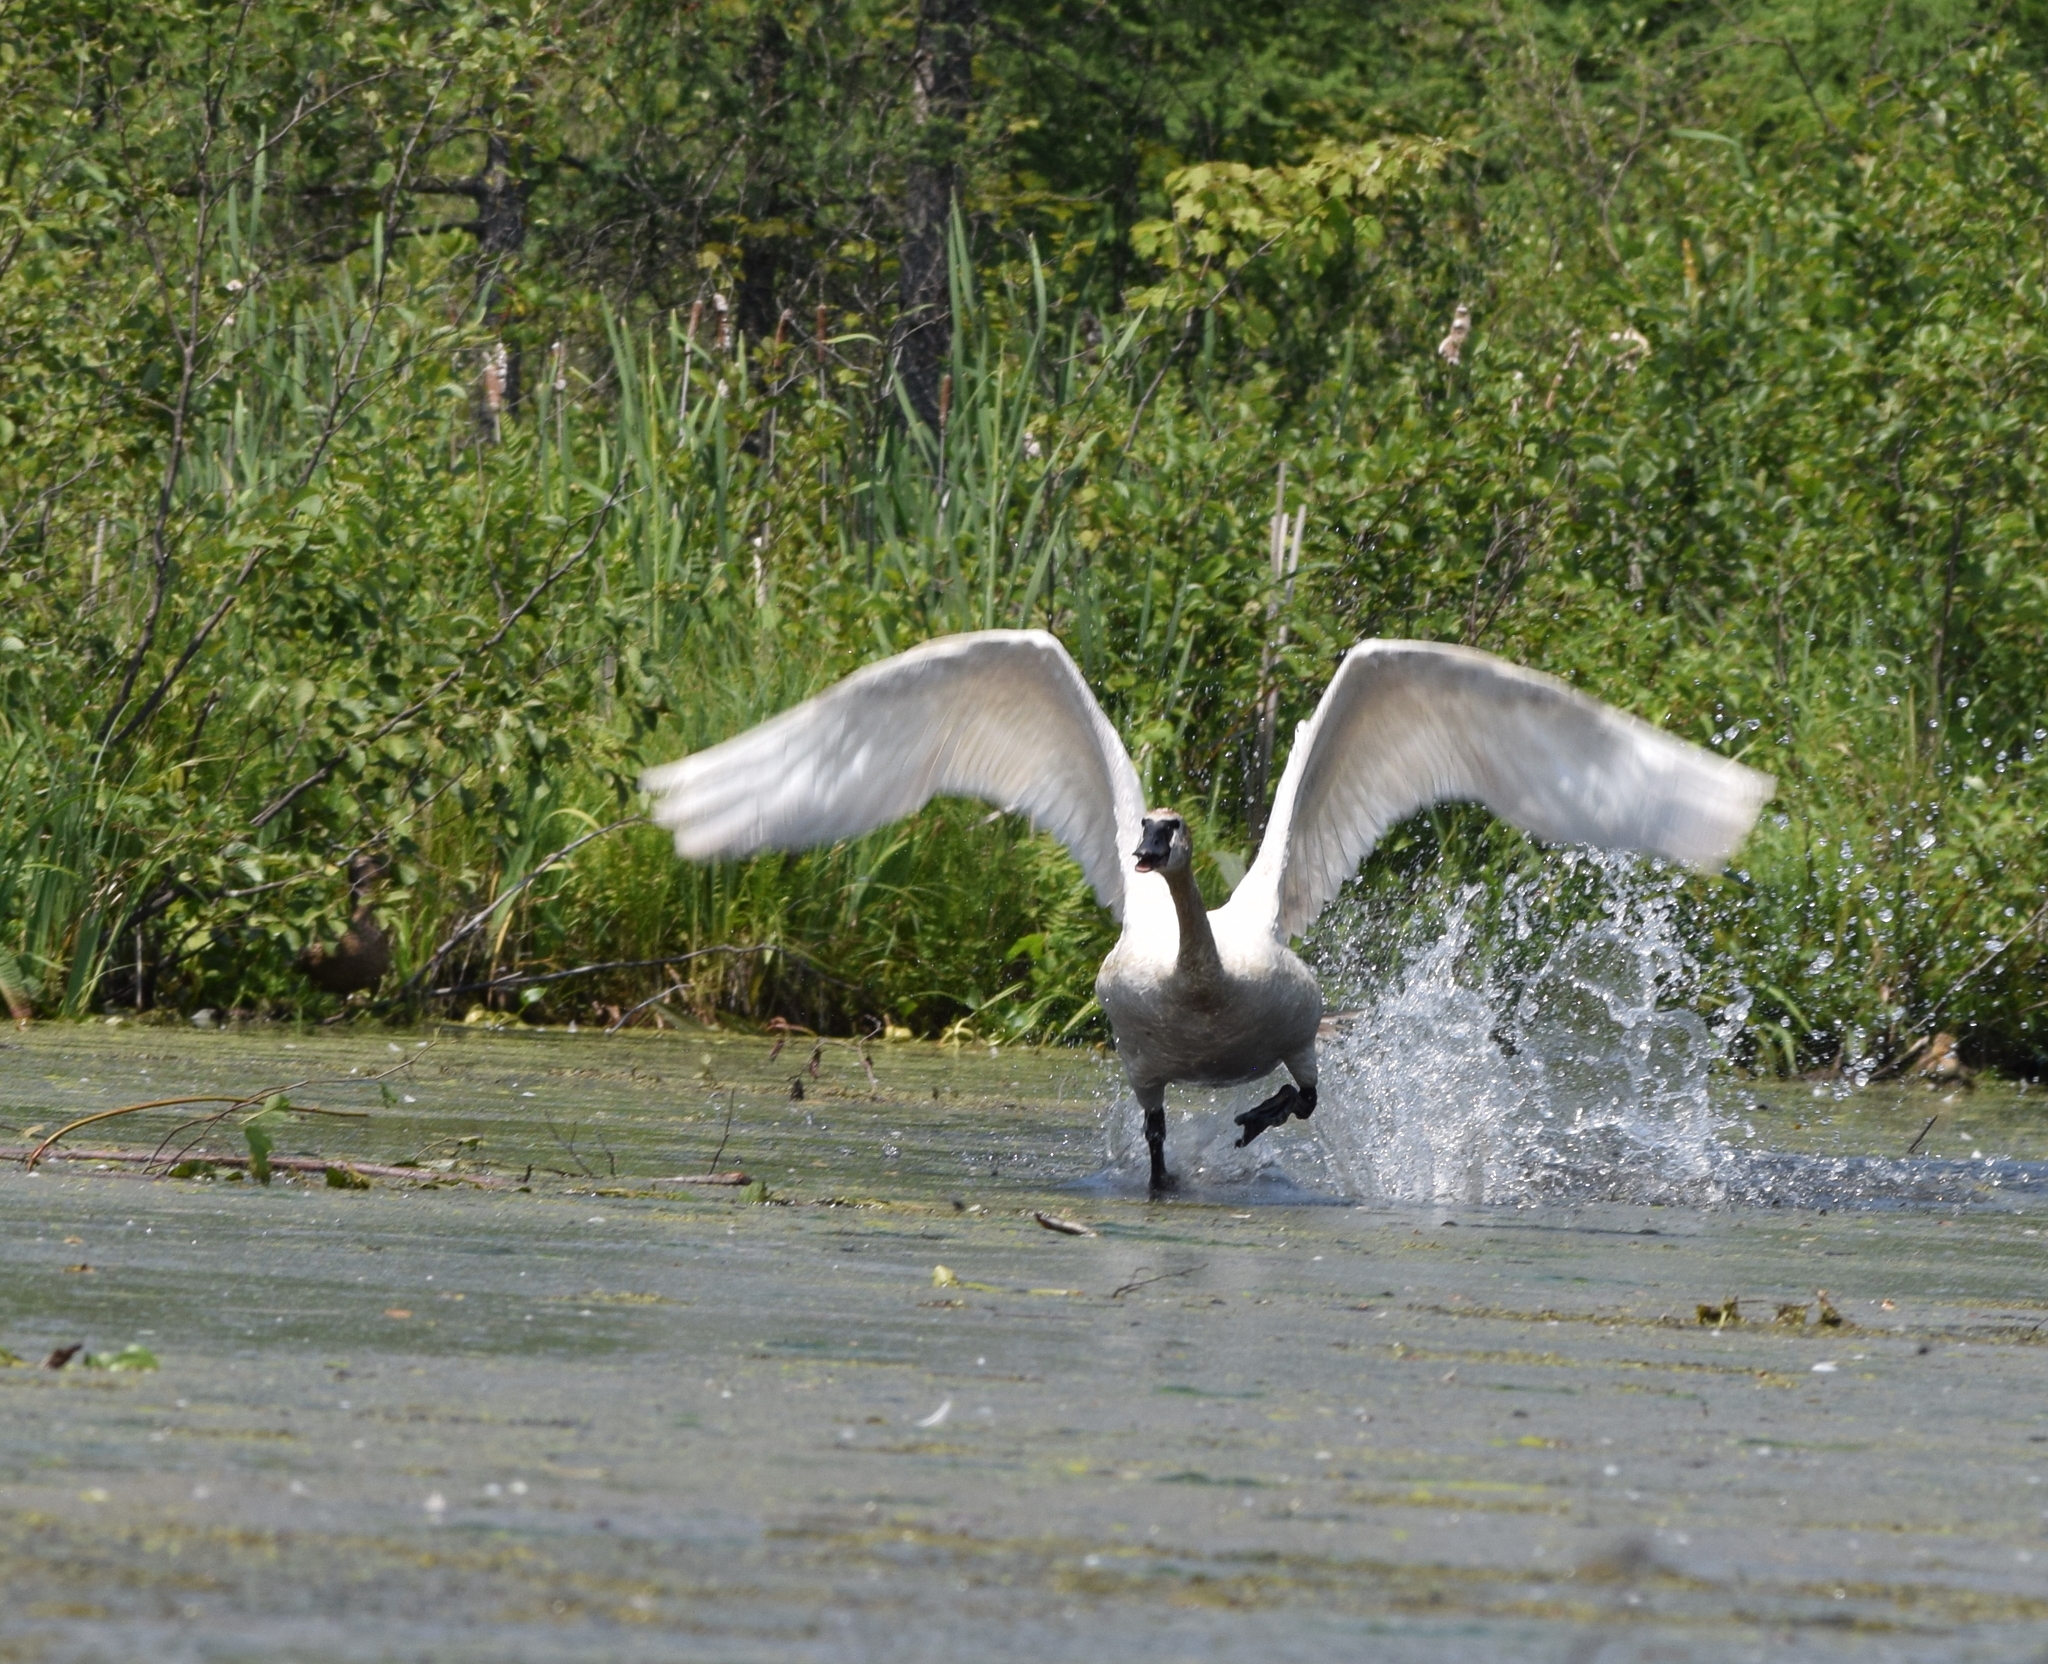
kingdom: Animalia
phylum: Chordata
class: Aves
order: Anseriformes
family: Anatidae
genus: Cygnus
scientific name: Cygnus buccinator
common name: Trumpeter swan
